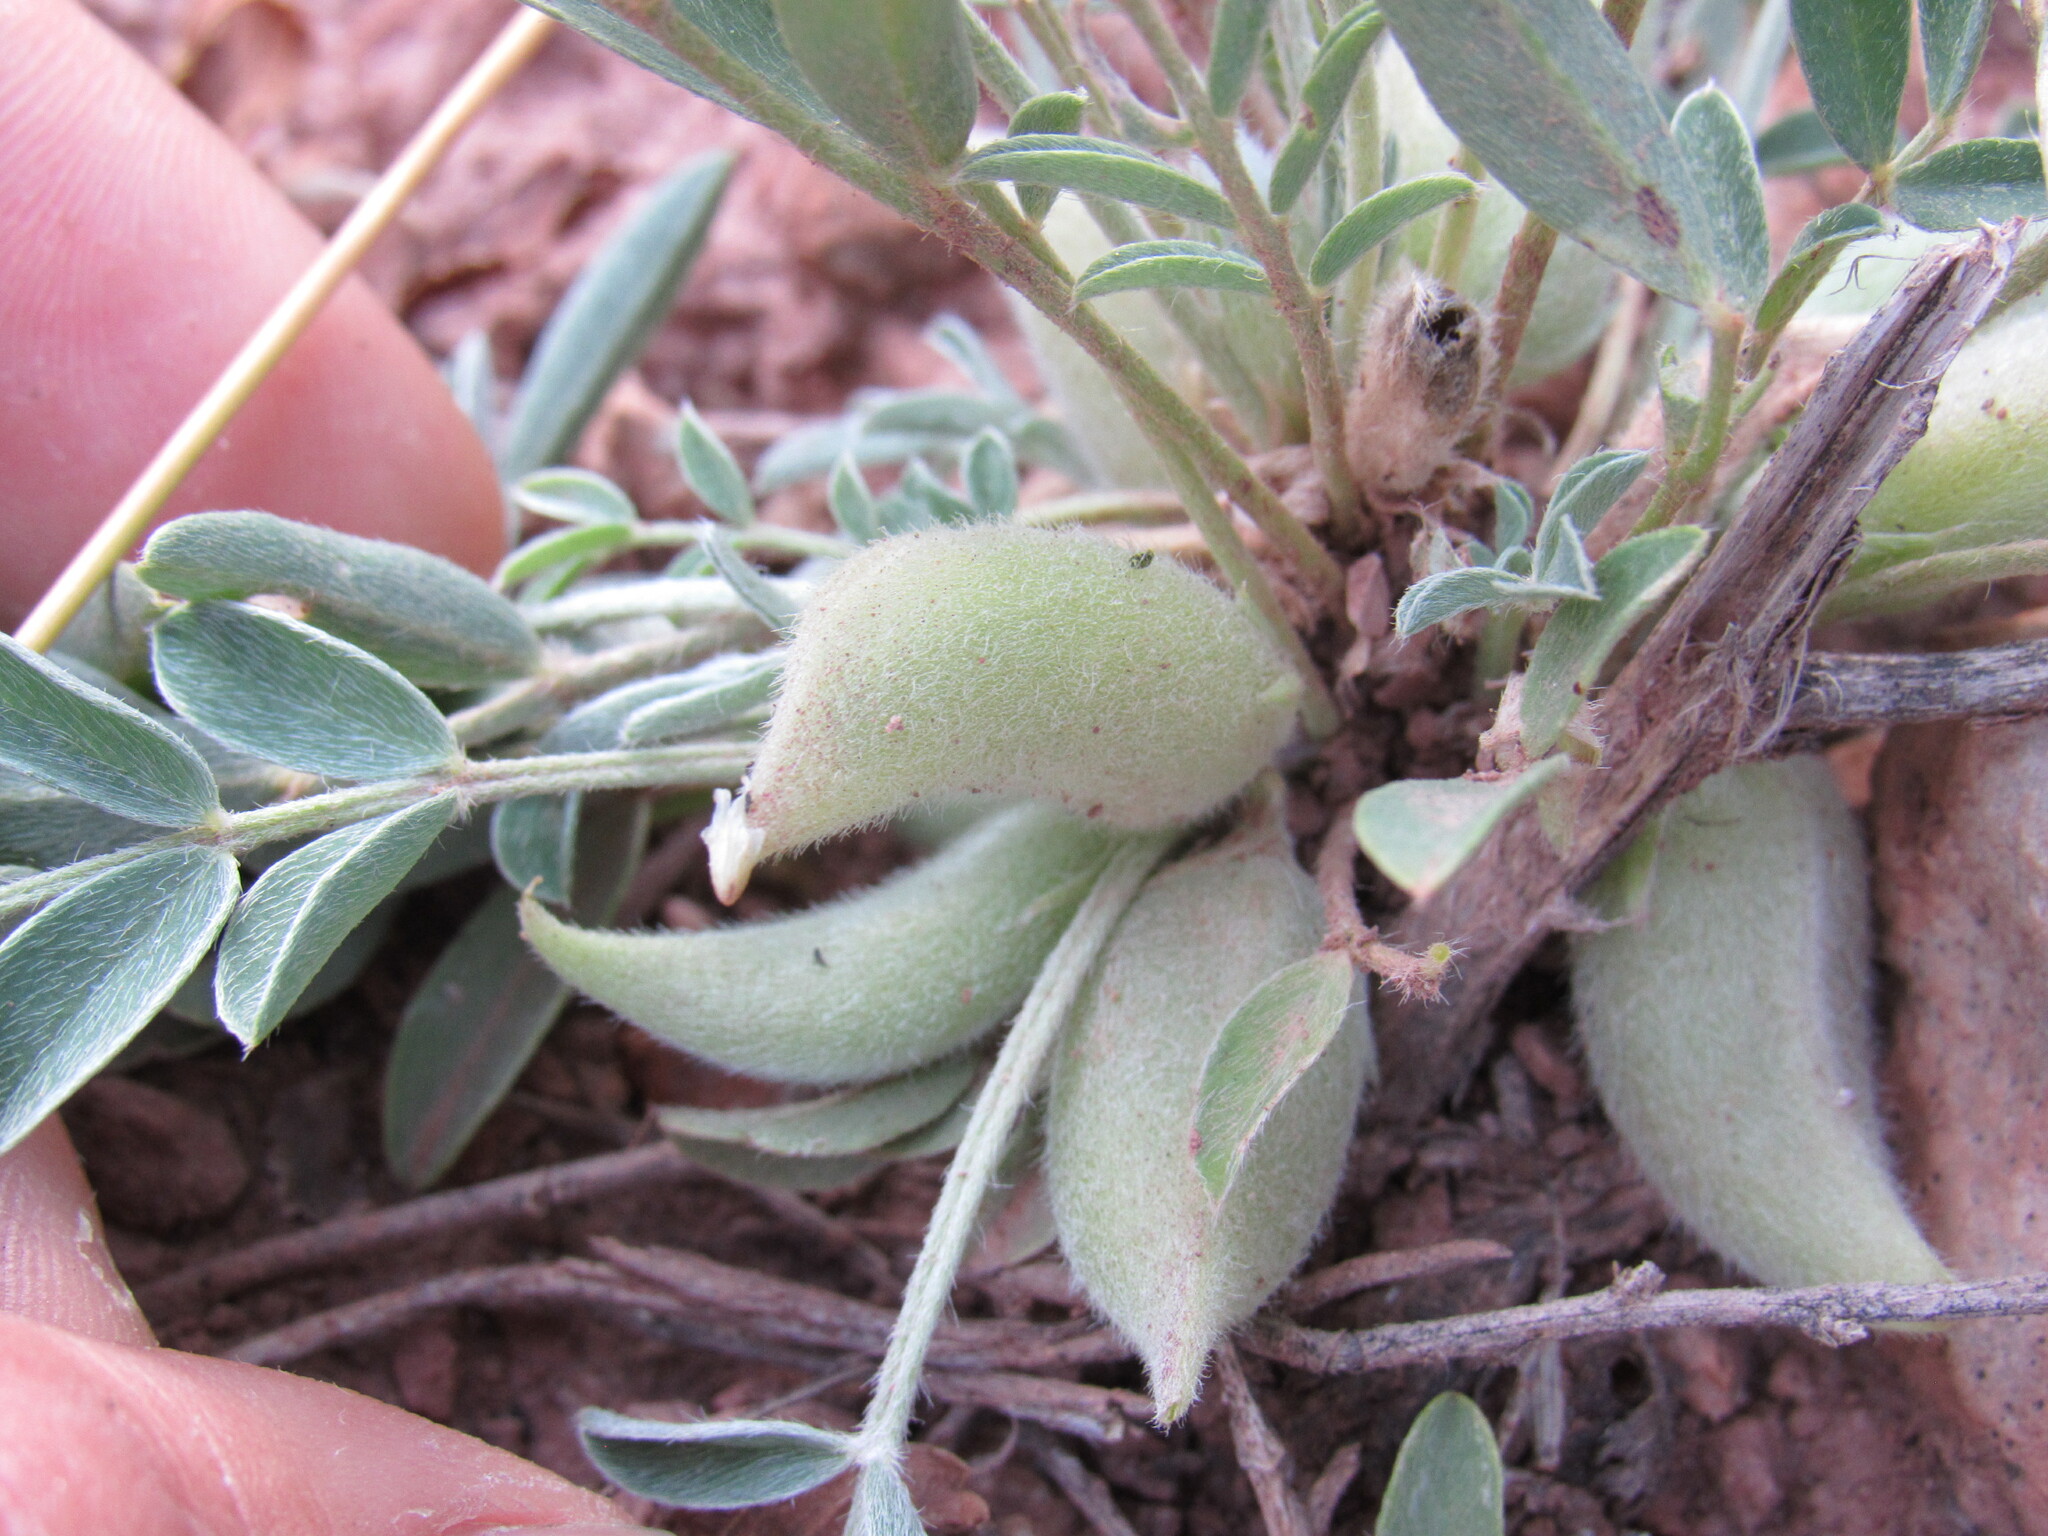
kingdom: Plantae
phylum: Tracheophyta
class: Magnoliopsida
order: Fabales
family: Fabaceae
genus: Astragalus
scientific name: Astragalus lotiflorus
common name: Lotus milk-vetch
